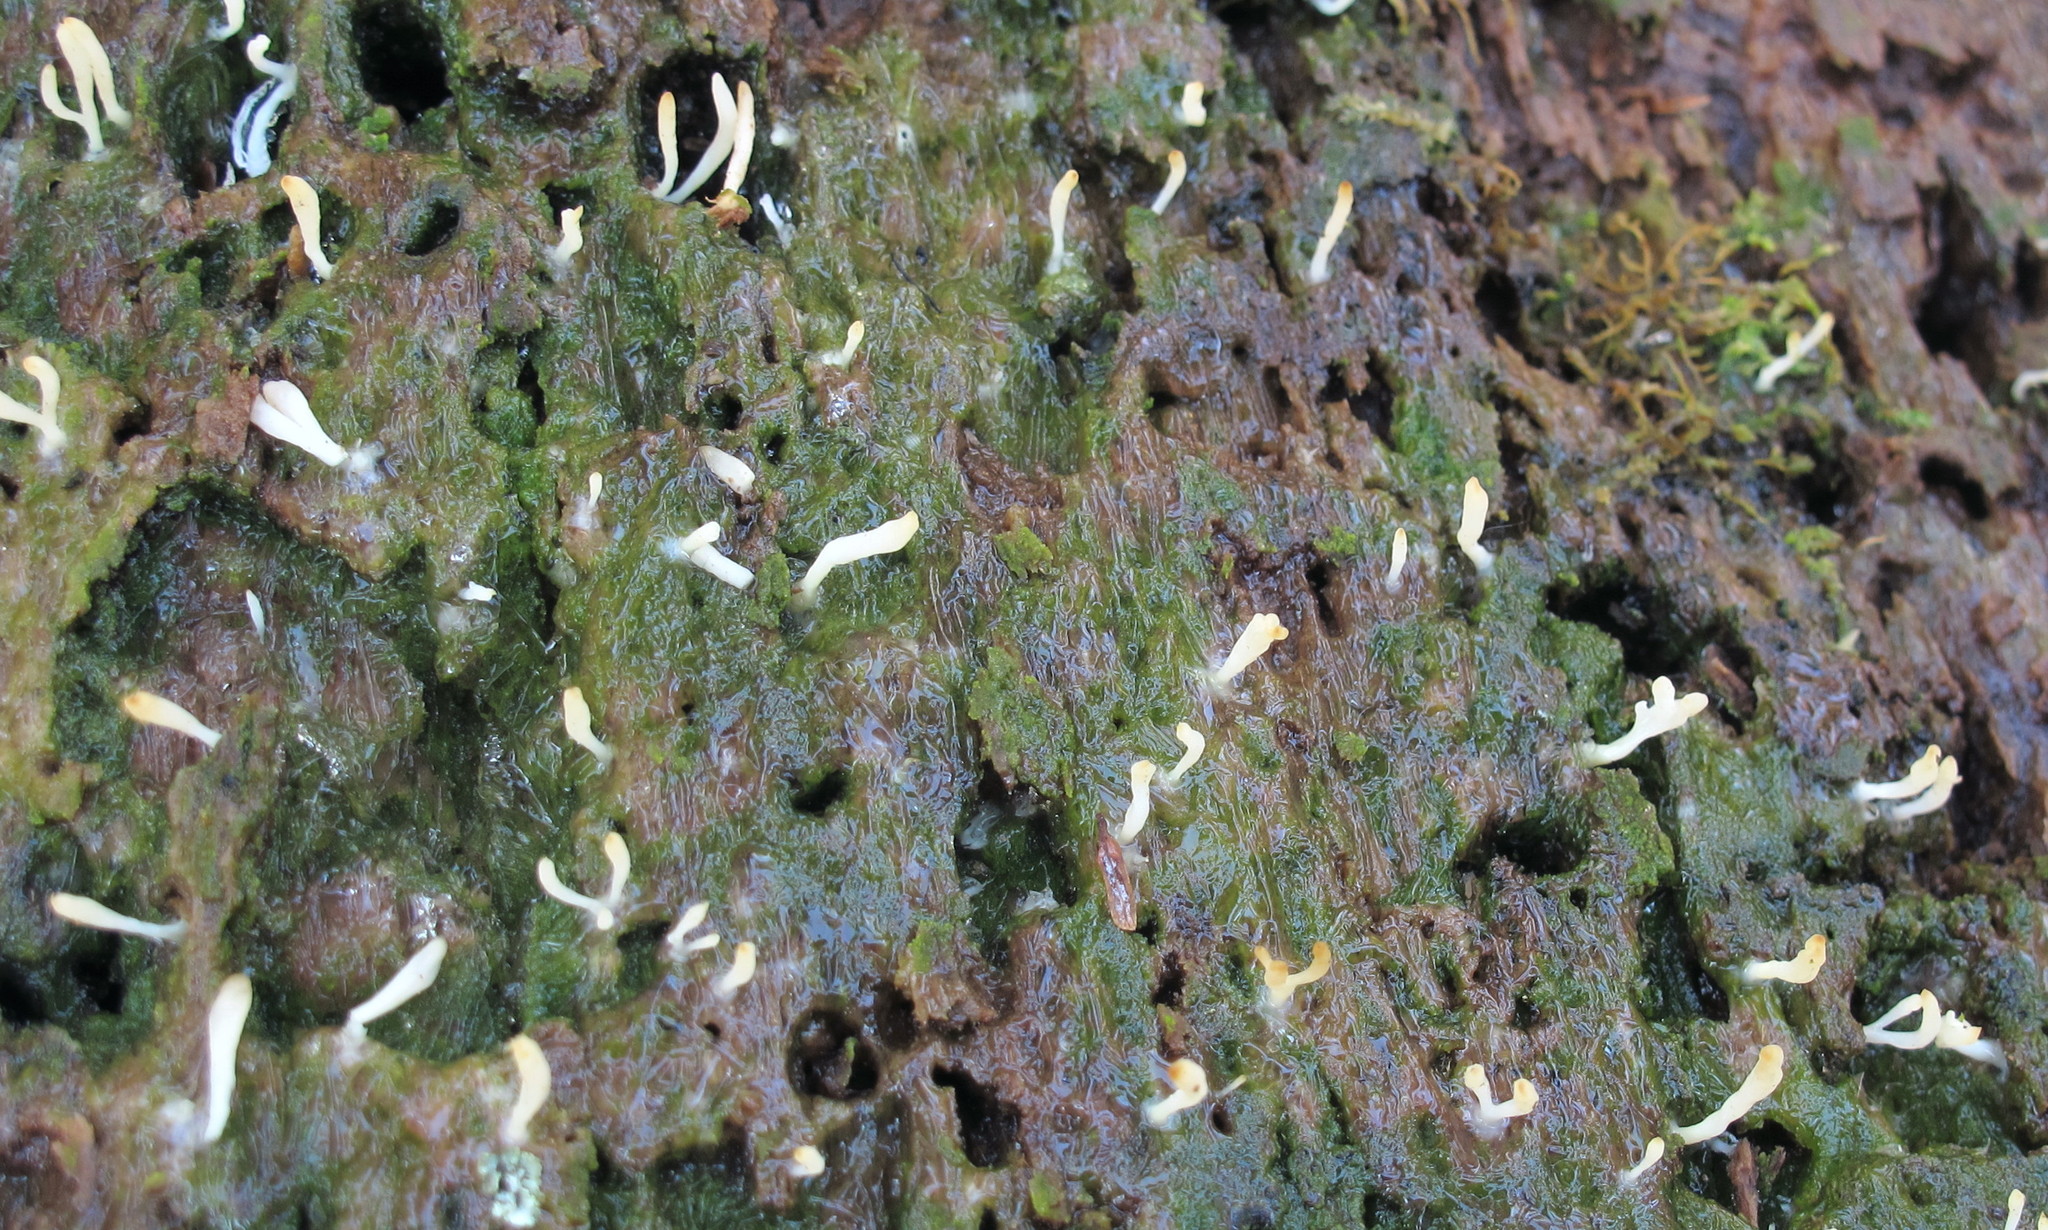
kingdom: Fungi
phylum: Basidiomycota
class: Agaricomycetes
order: Cantharellales
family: Hydnaceae
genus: Multiclavula
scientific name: Multiclavula mucida
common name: White green-algae coral
